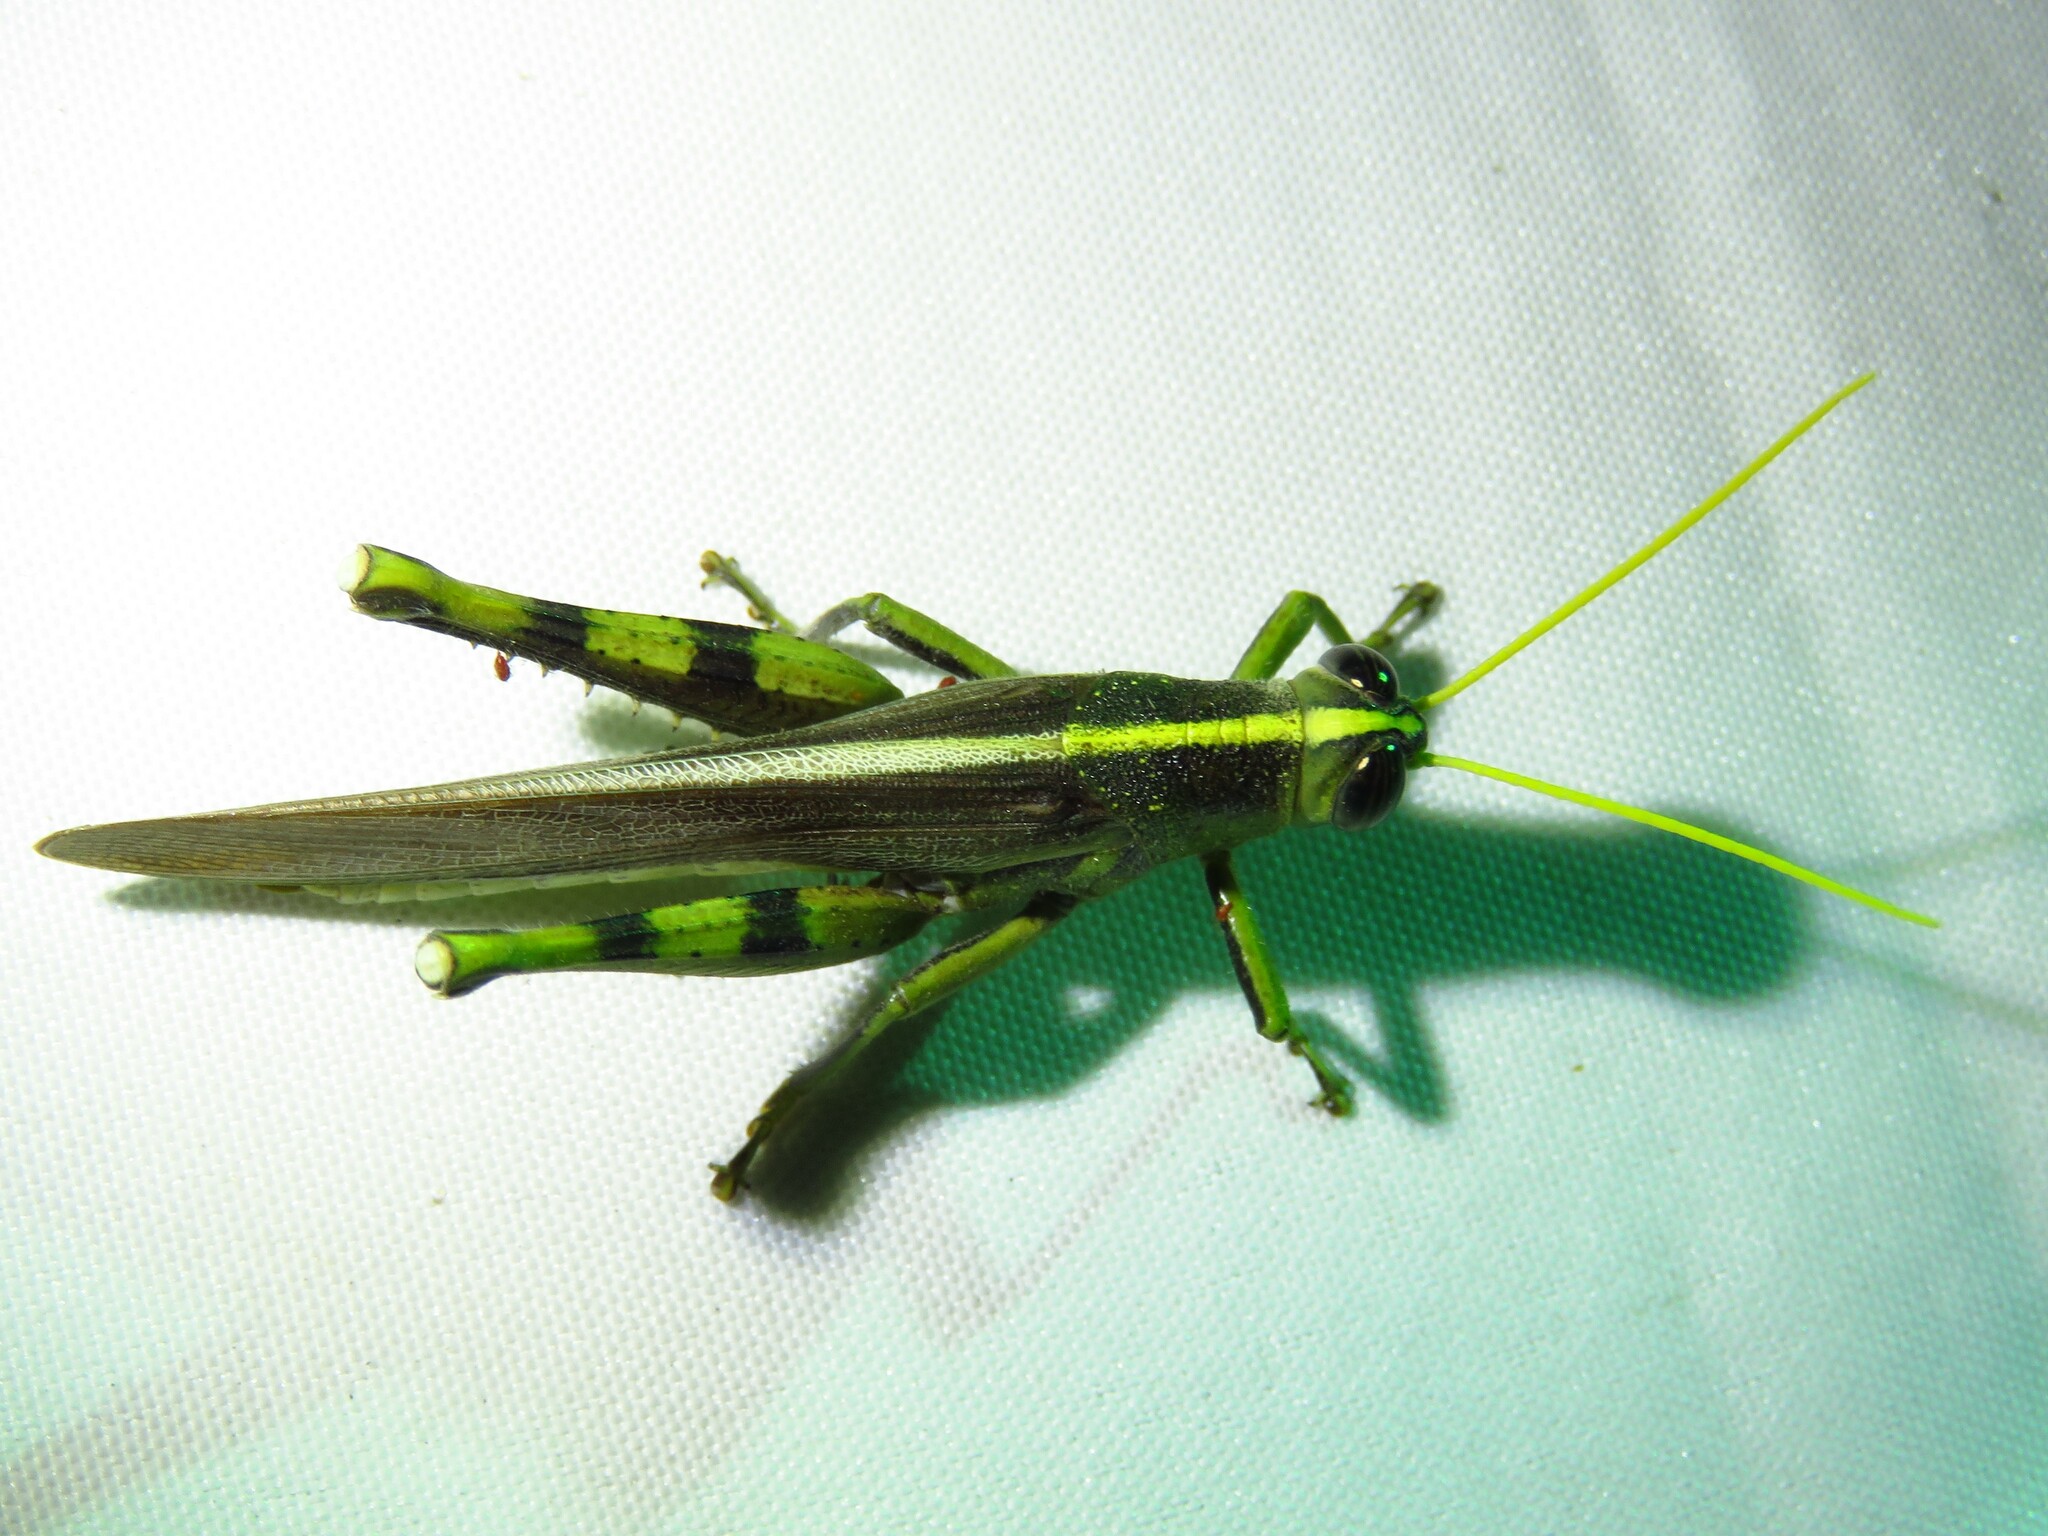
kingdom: Animalia
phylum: Arthropoda
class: Insecta
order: Orthoptera
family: Acrididae
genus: Schistocerca
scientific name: Schistocerca obscura
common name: Obscure bird grasshopper
